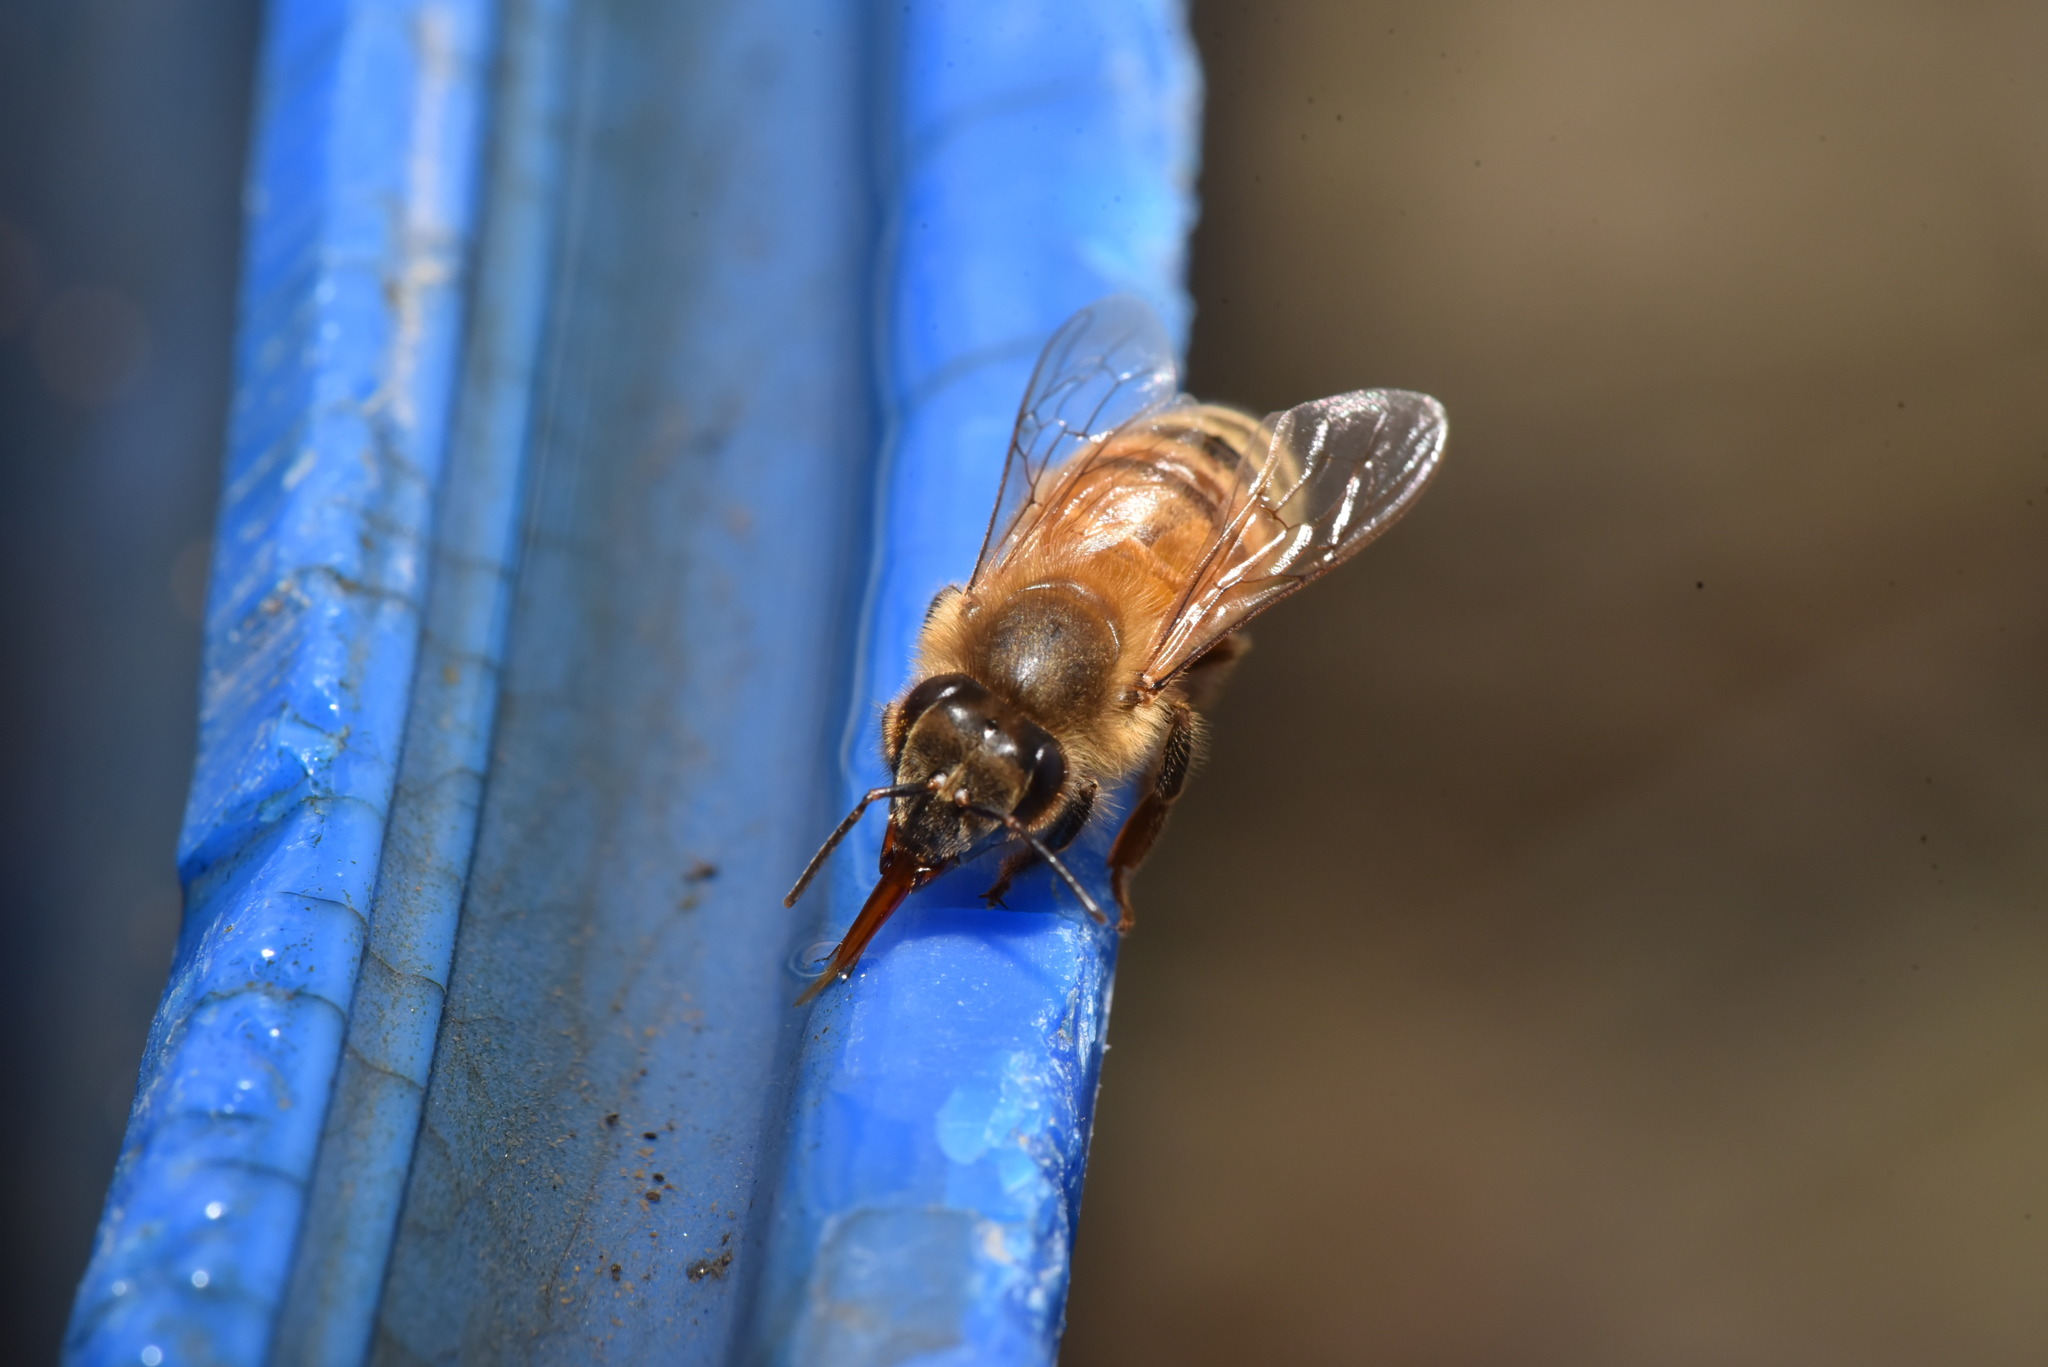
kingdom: Animalia
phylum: Arthropoda
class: Insecta
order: Hymenoptera
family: Apidae
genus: Apis
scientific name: Apis mellifera
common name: Honey bee
